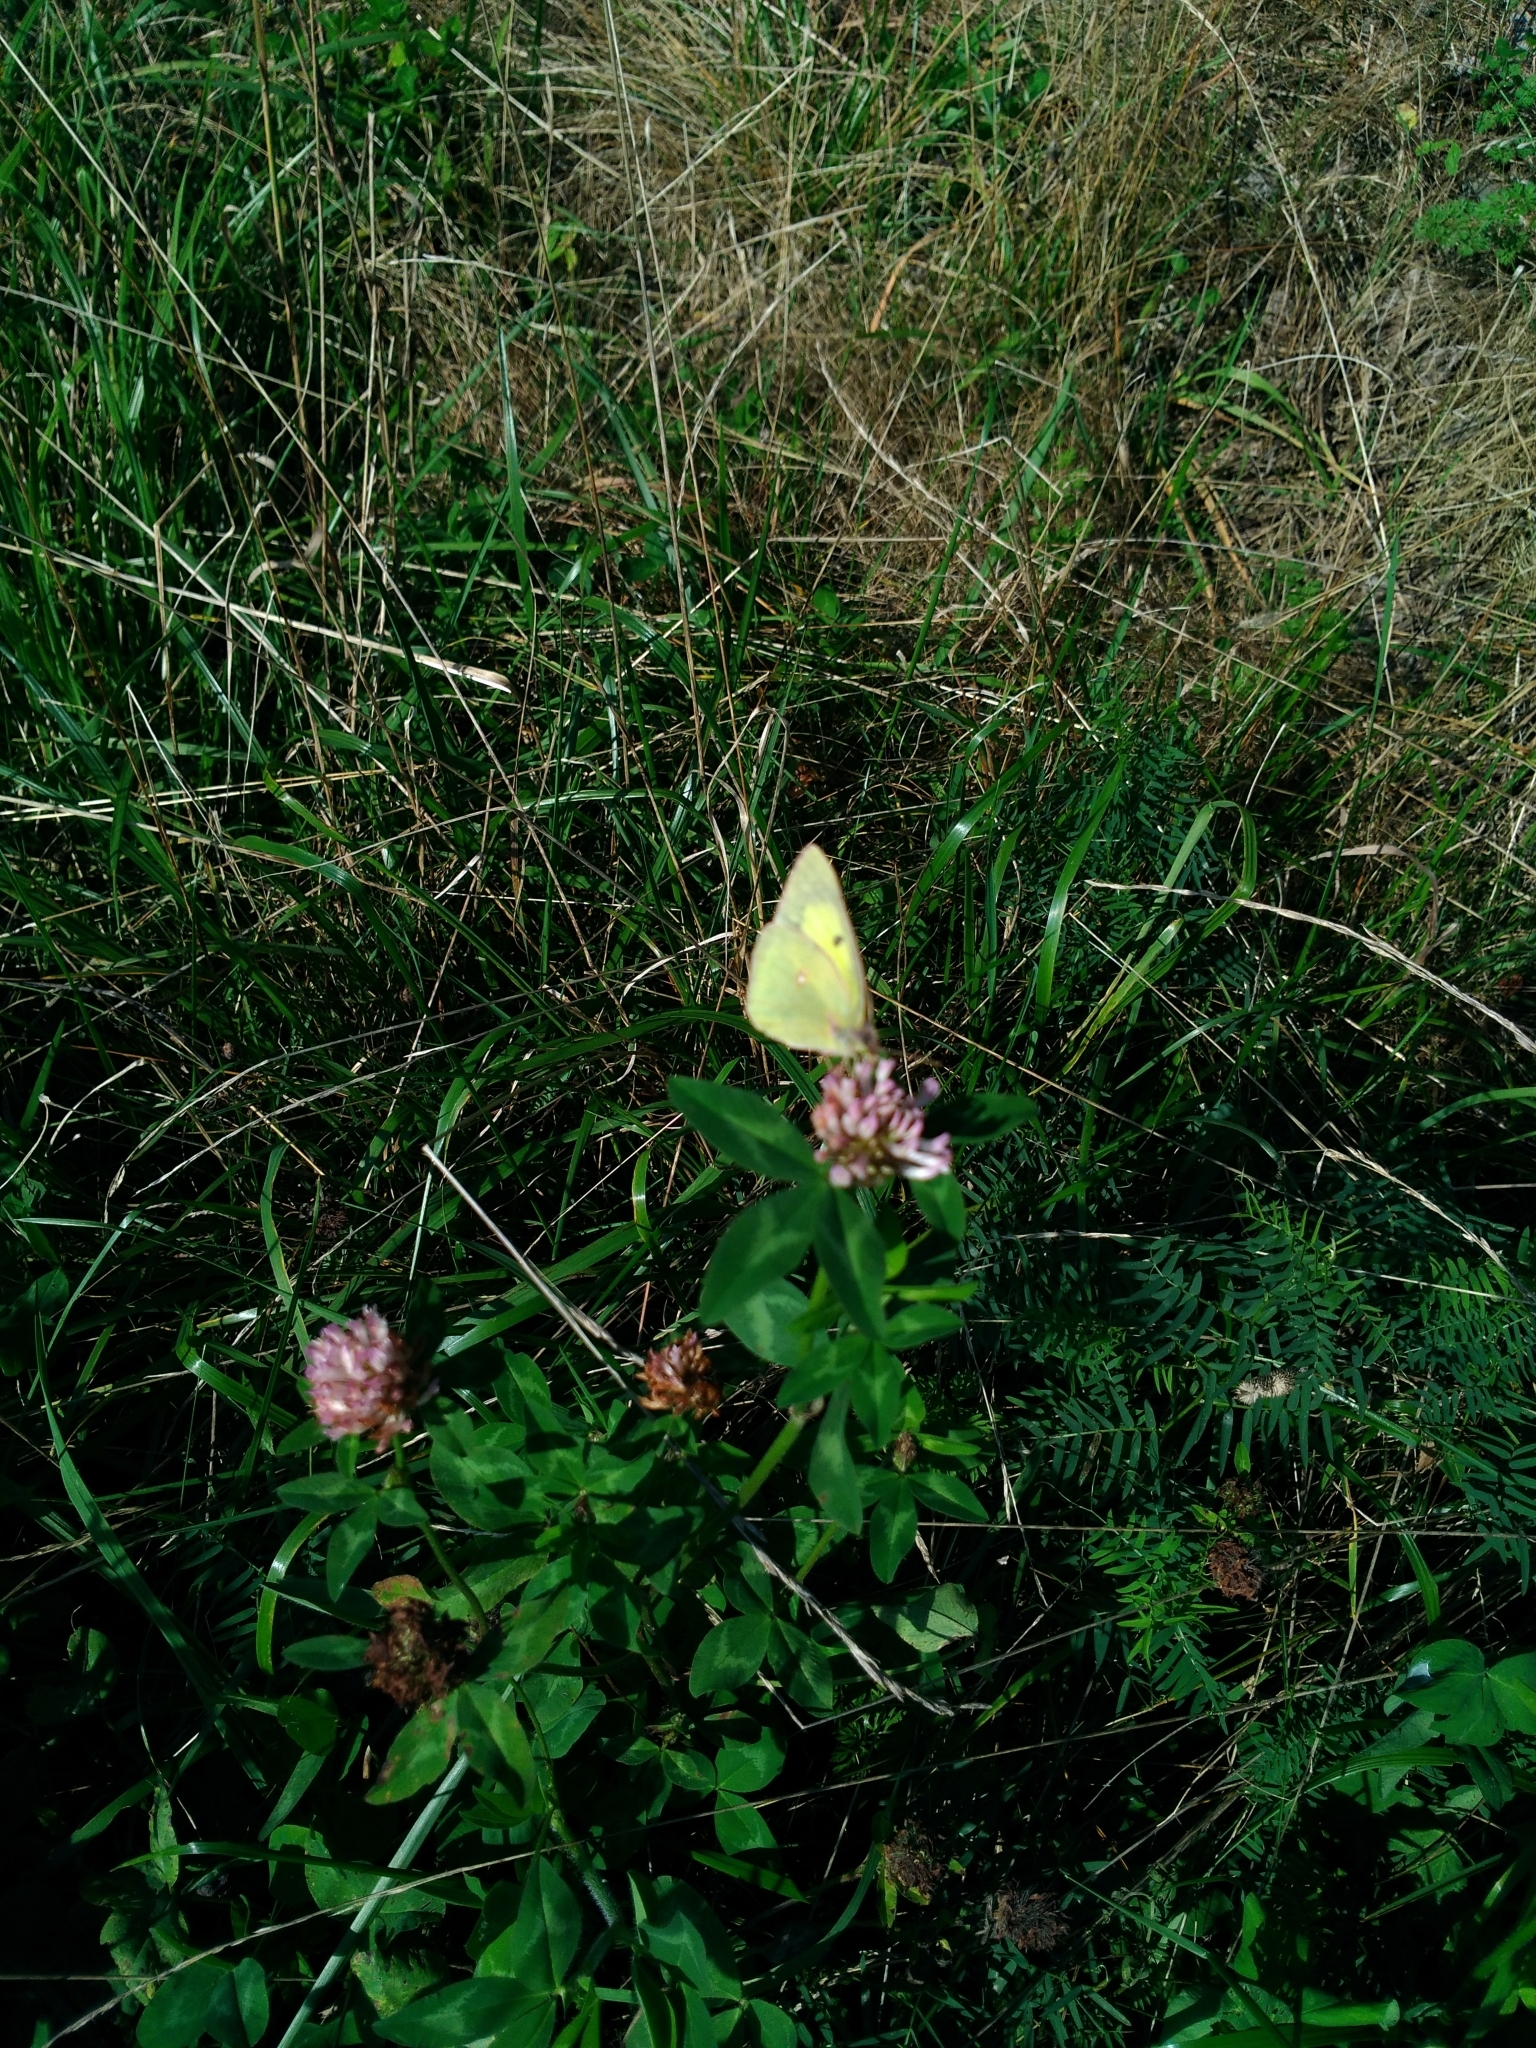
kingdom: Animalia
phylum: Arthropoda
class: Insecta
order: Lepidoptera
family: Pieridae
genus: Colias
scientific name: Colias philodice
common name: Clouded sulphur
